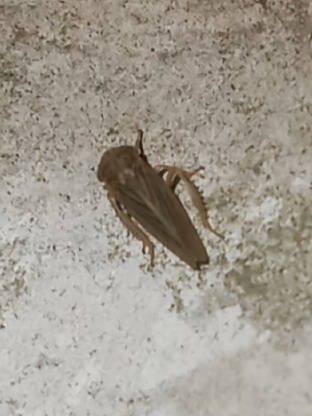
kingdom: Animalia
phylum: Arthropoda
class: Insecta
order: Hemiptera
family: Cicadellidae
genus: Agallia
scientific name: Agallia constricta
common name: The constricted leafhopper
